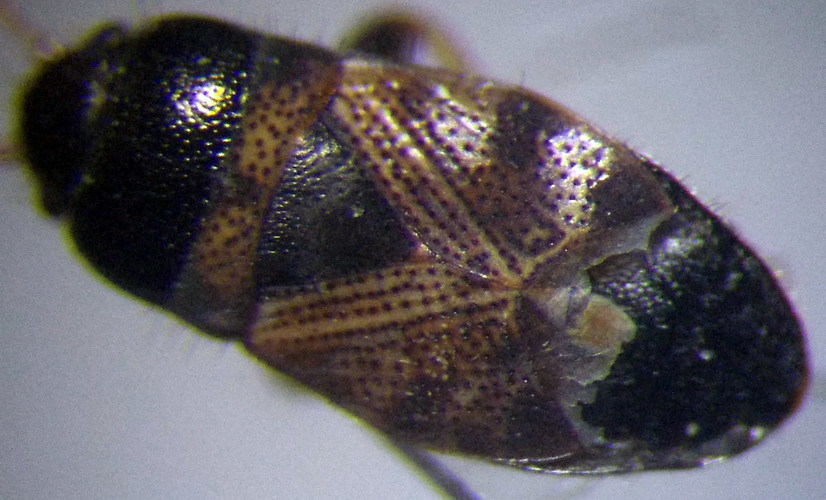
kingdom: Animalia
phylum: Arthropoda
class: Insecta
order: Hemiptera
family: Rhyparochromidae
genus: Pionosomus
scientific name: Pionosomus varius
